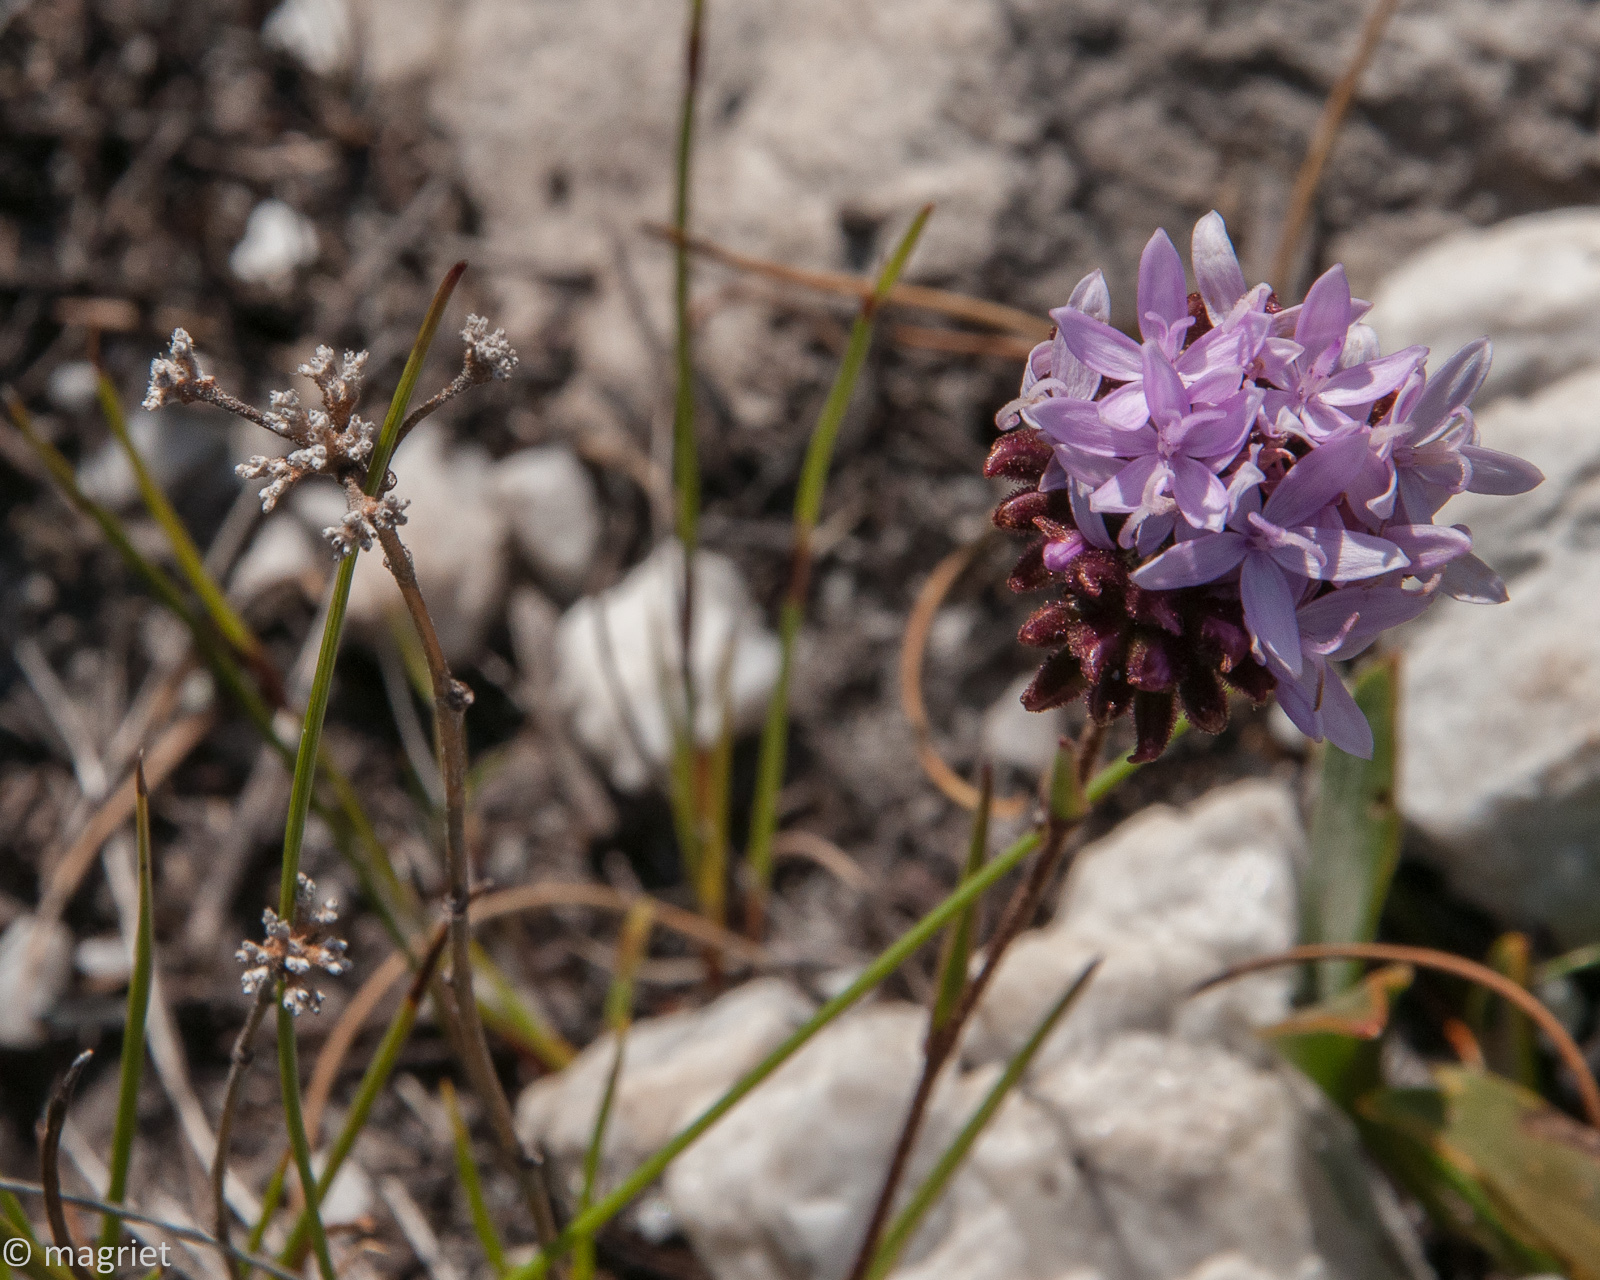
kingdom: Plantae
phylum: Tracheophyta
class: Magnoliopsida
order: Asterales
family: Asteraceae
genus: Corymbium
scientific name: Corymbium africanum
